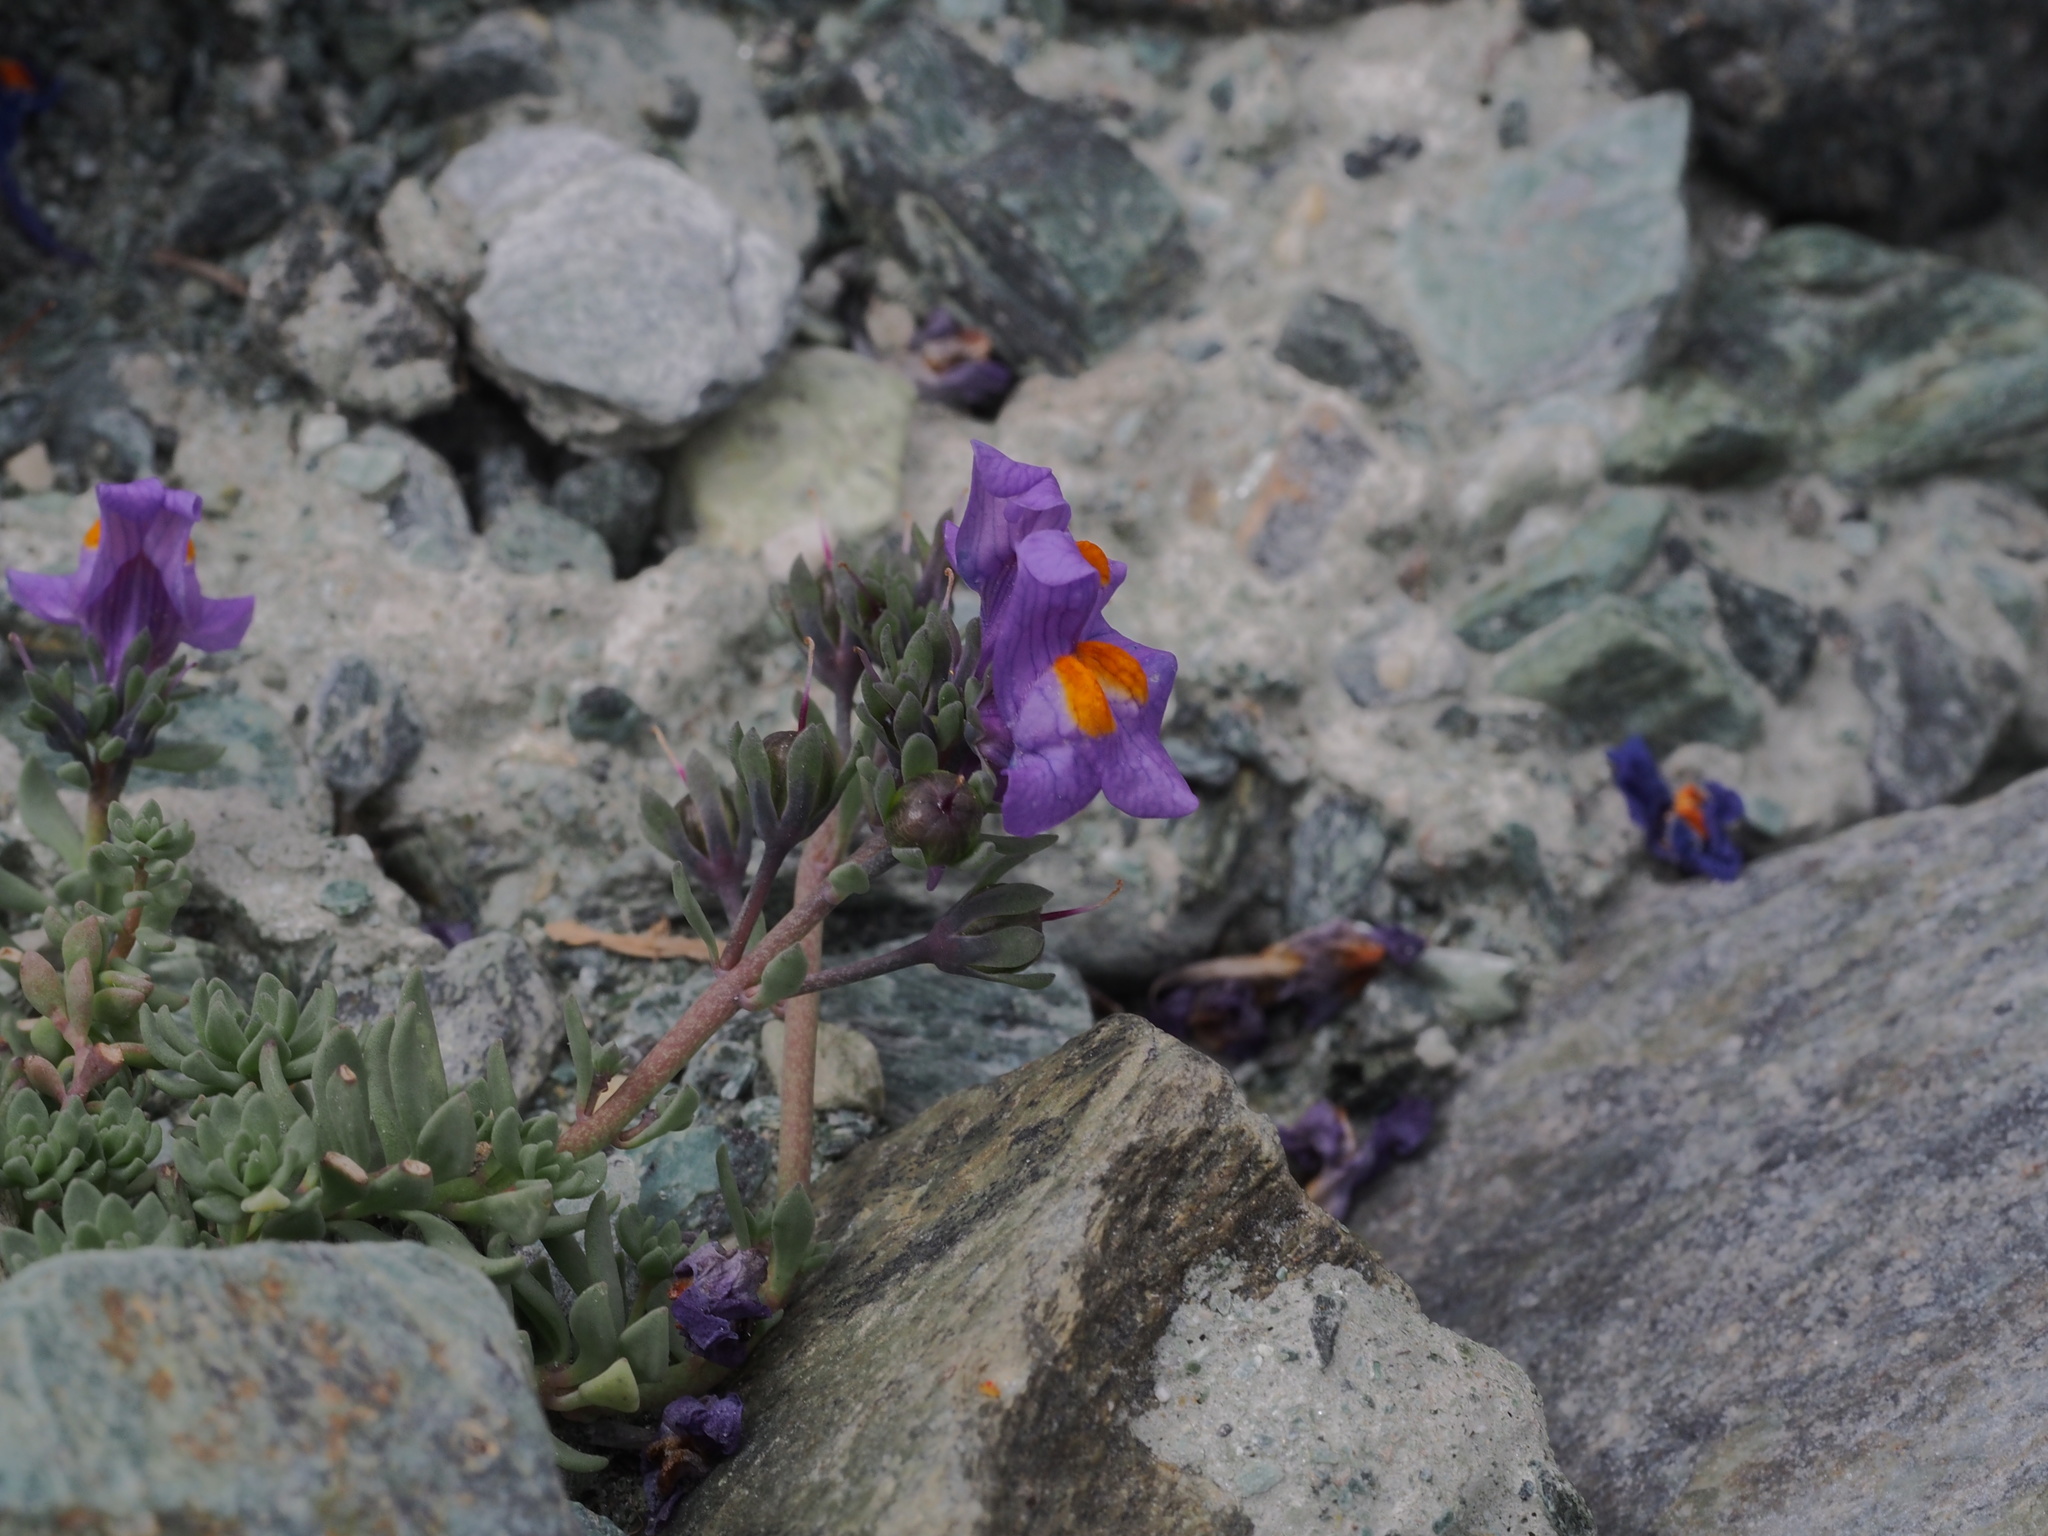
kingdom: Plantae
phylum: Tracheophyta
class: Magnoliopsida
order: Lamiales
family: Plantaginaceae
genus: Linaria
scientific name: Linaria alpina
